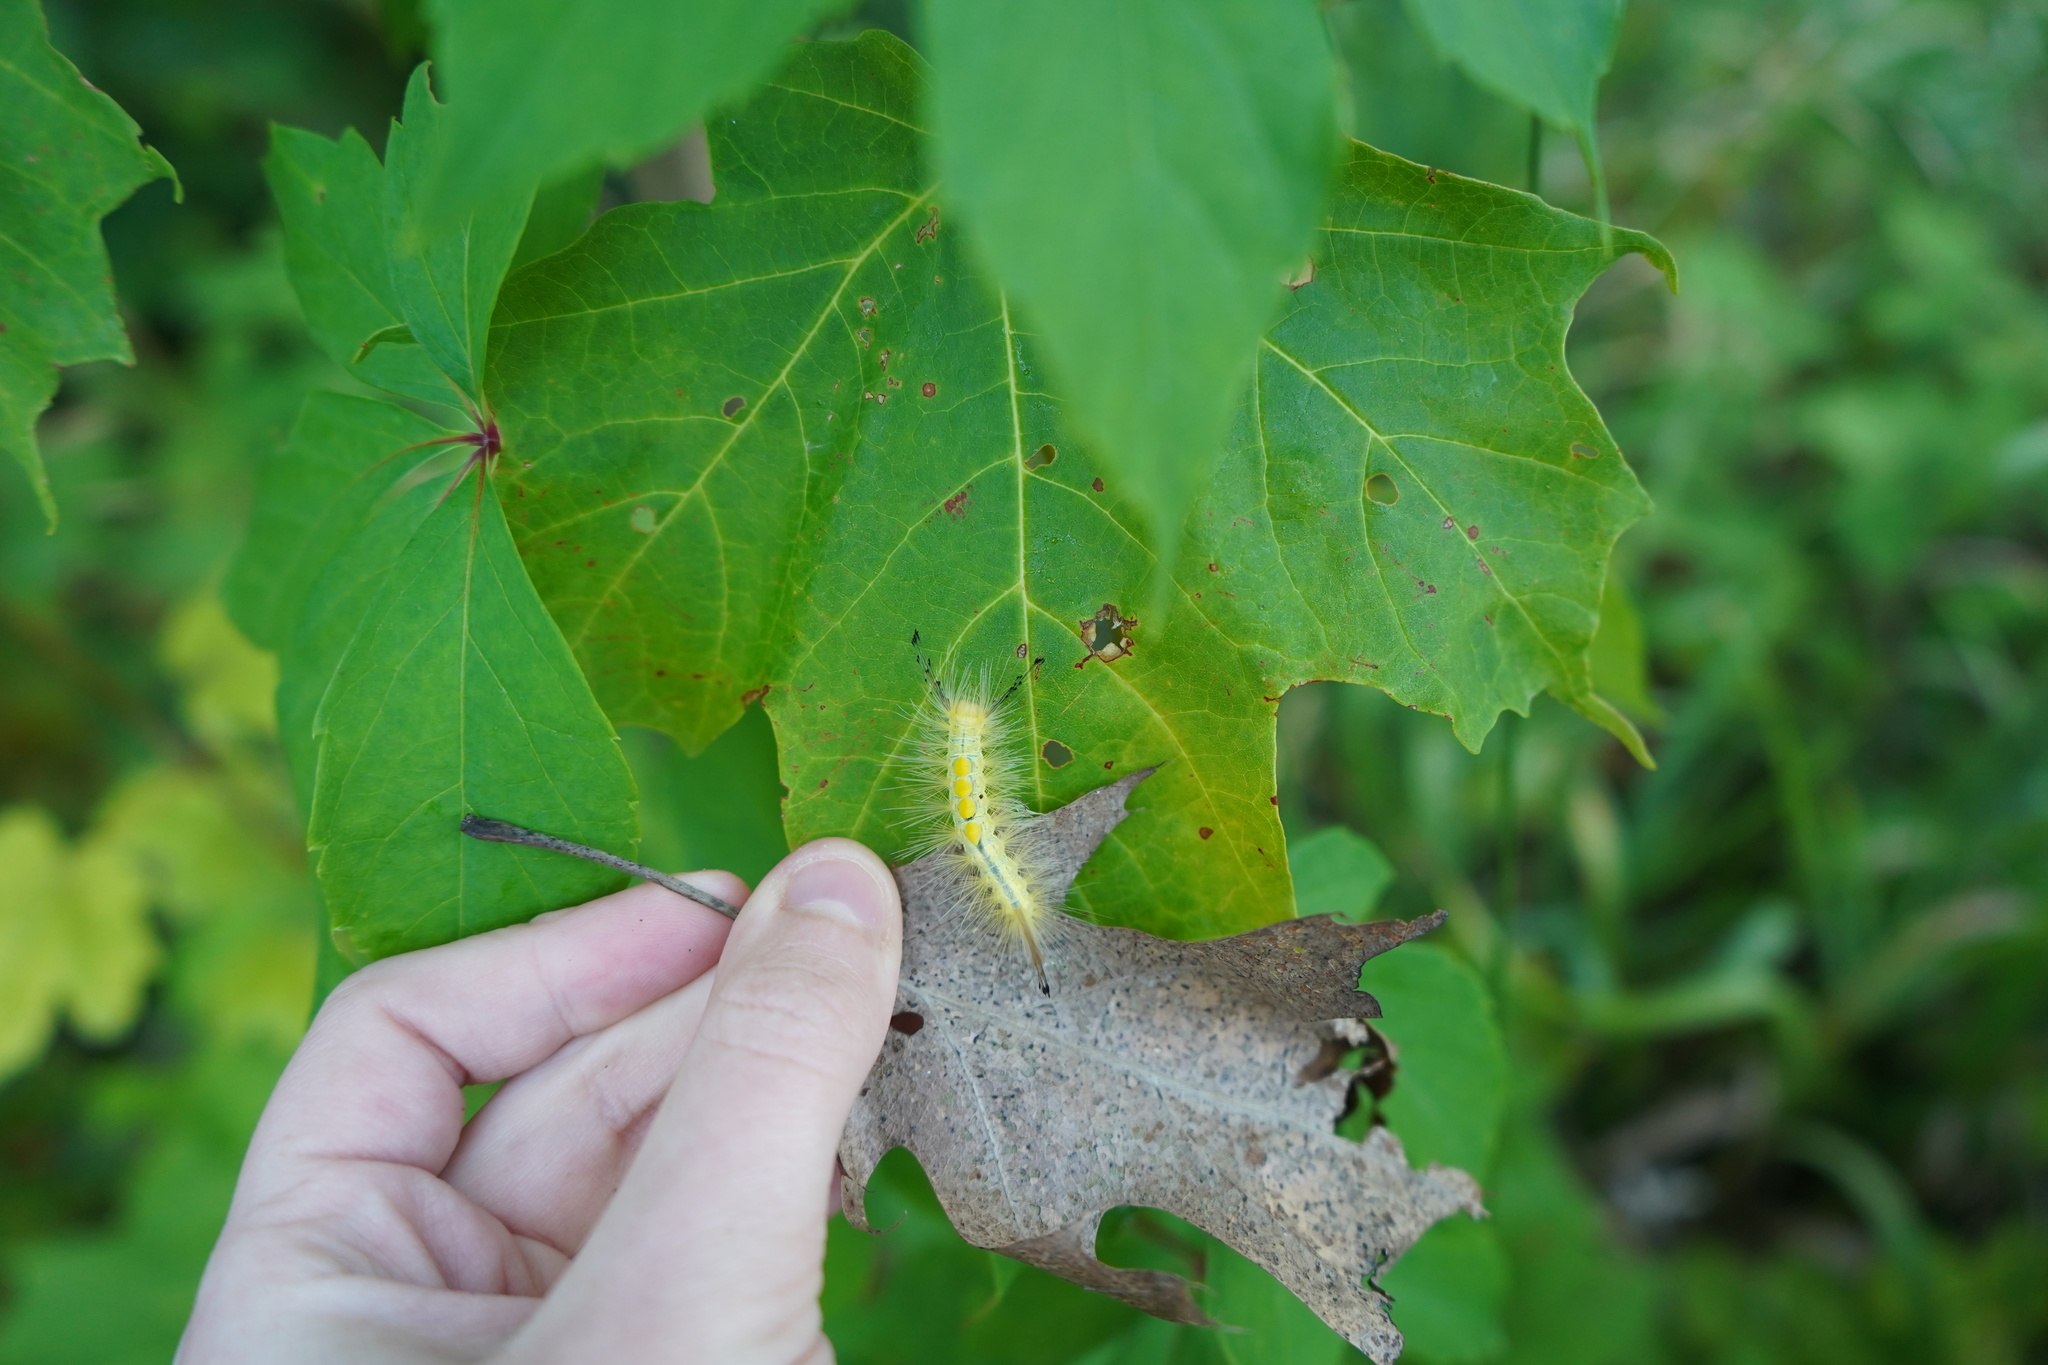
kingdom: Animalia
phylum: Arthropoda
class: Insecta
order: Lepidoptera
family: Erebidae
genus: Orgyia
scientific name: Orgyia definita
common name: Definite tussock moth
